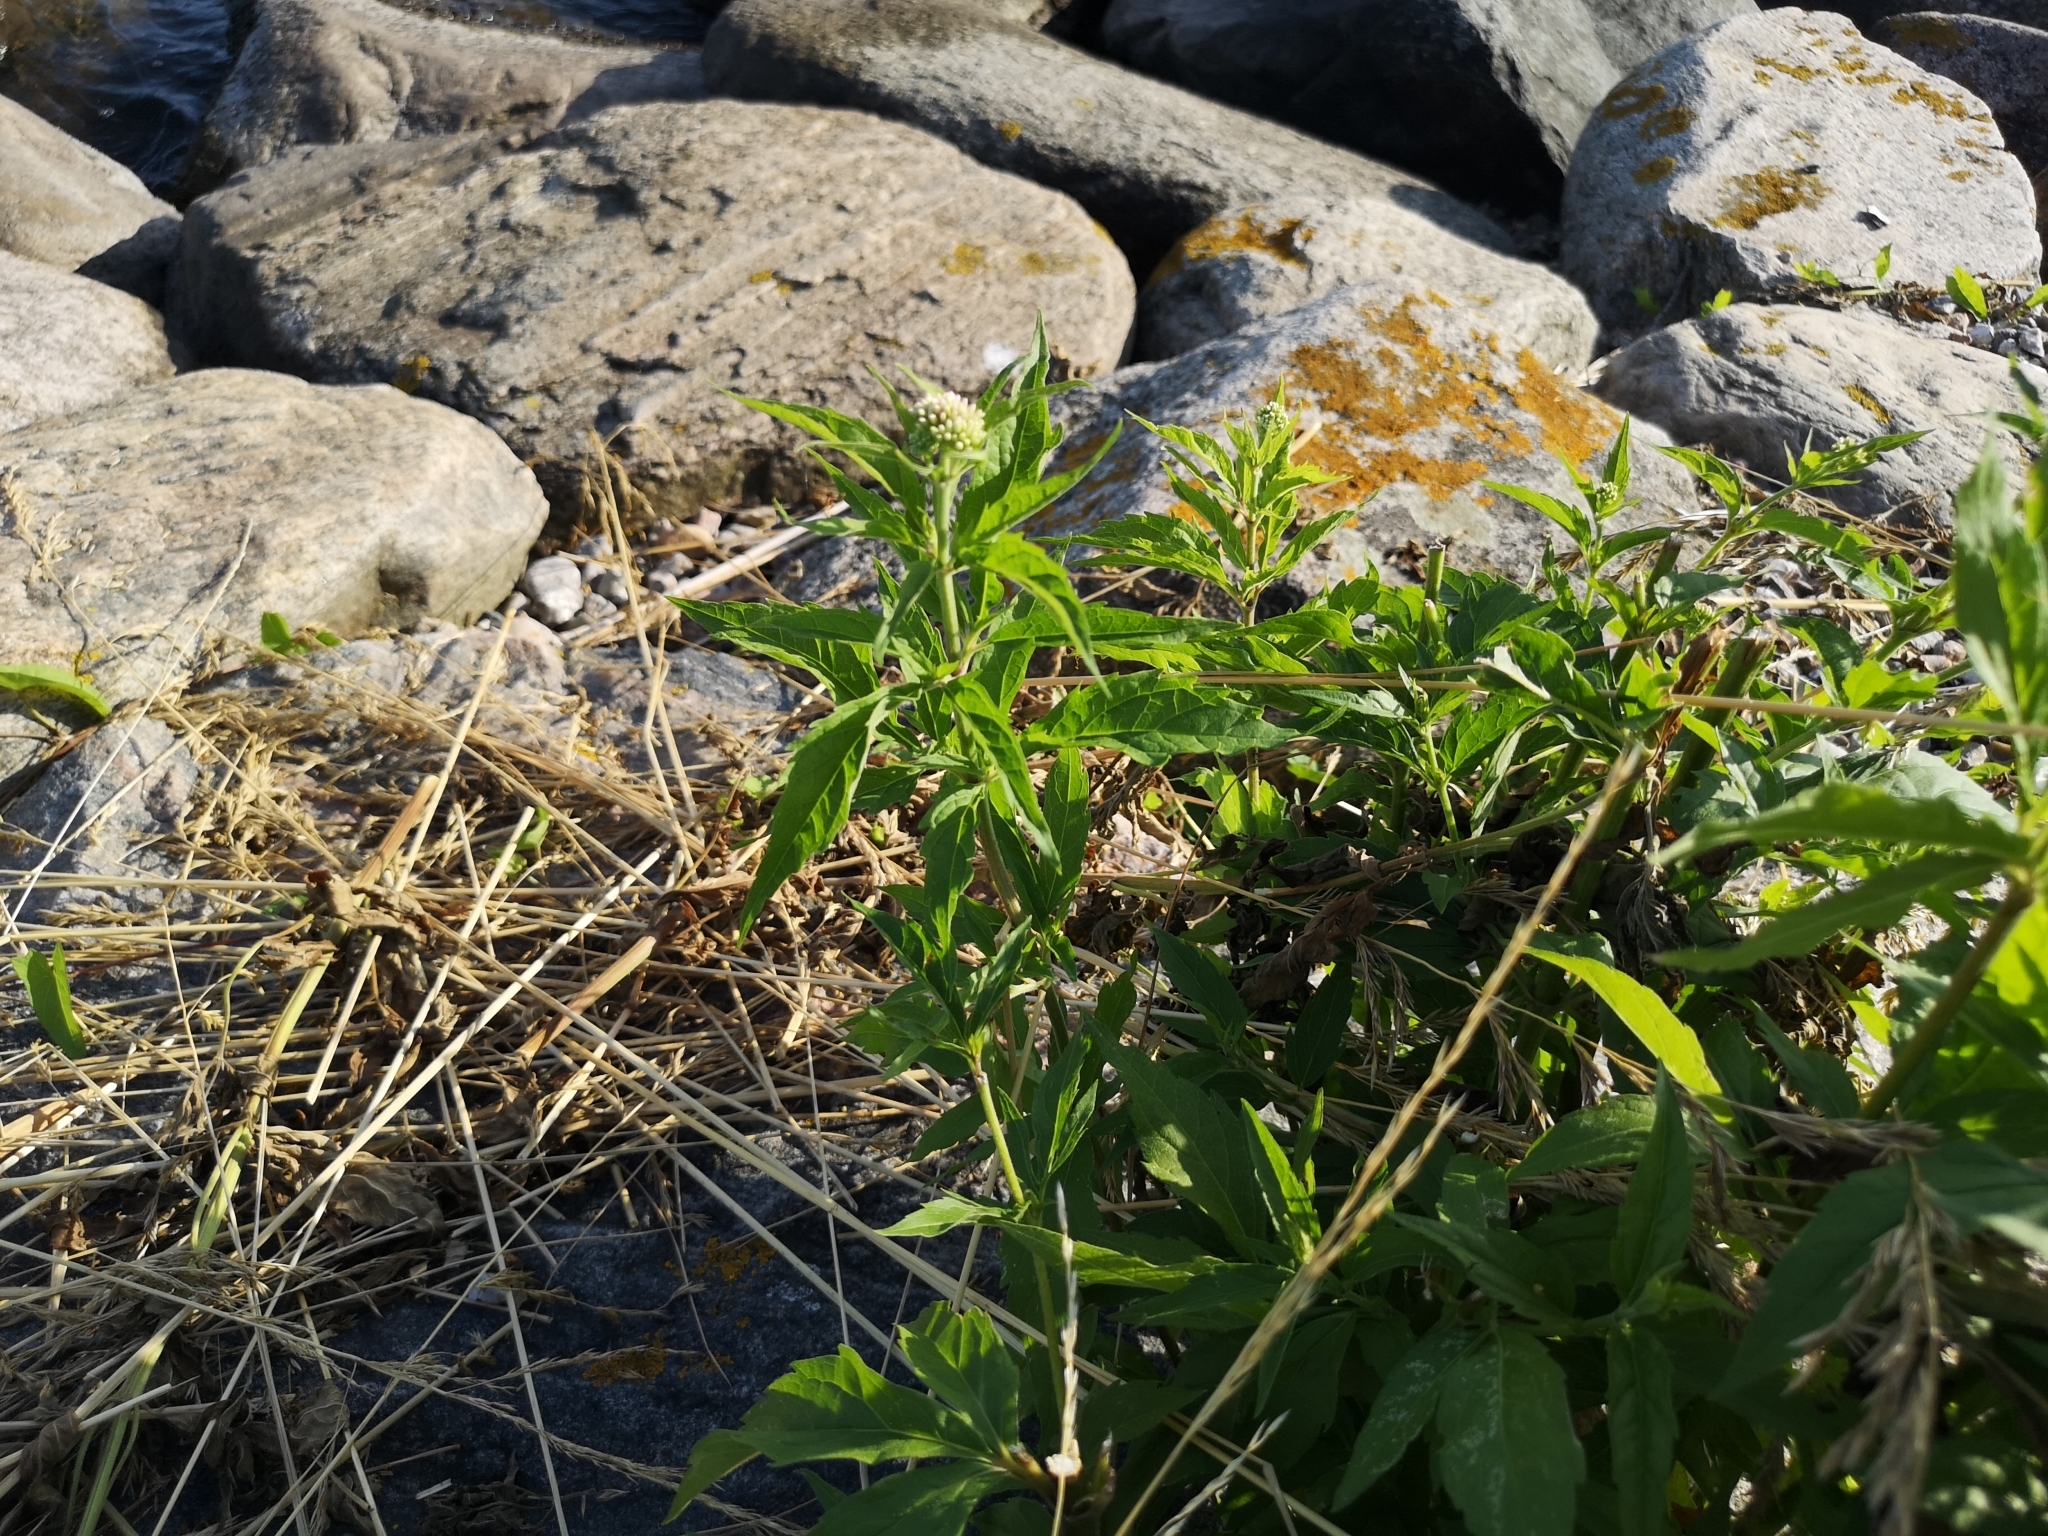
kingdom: Plantae
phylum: Tracheophyta
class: Magnoliopsida
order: Asterales
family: Asteraceae
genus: Eupatorium
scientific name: Eupatorium cannabinum
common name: Hemp-agrimony
